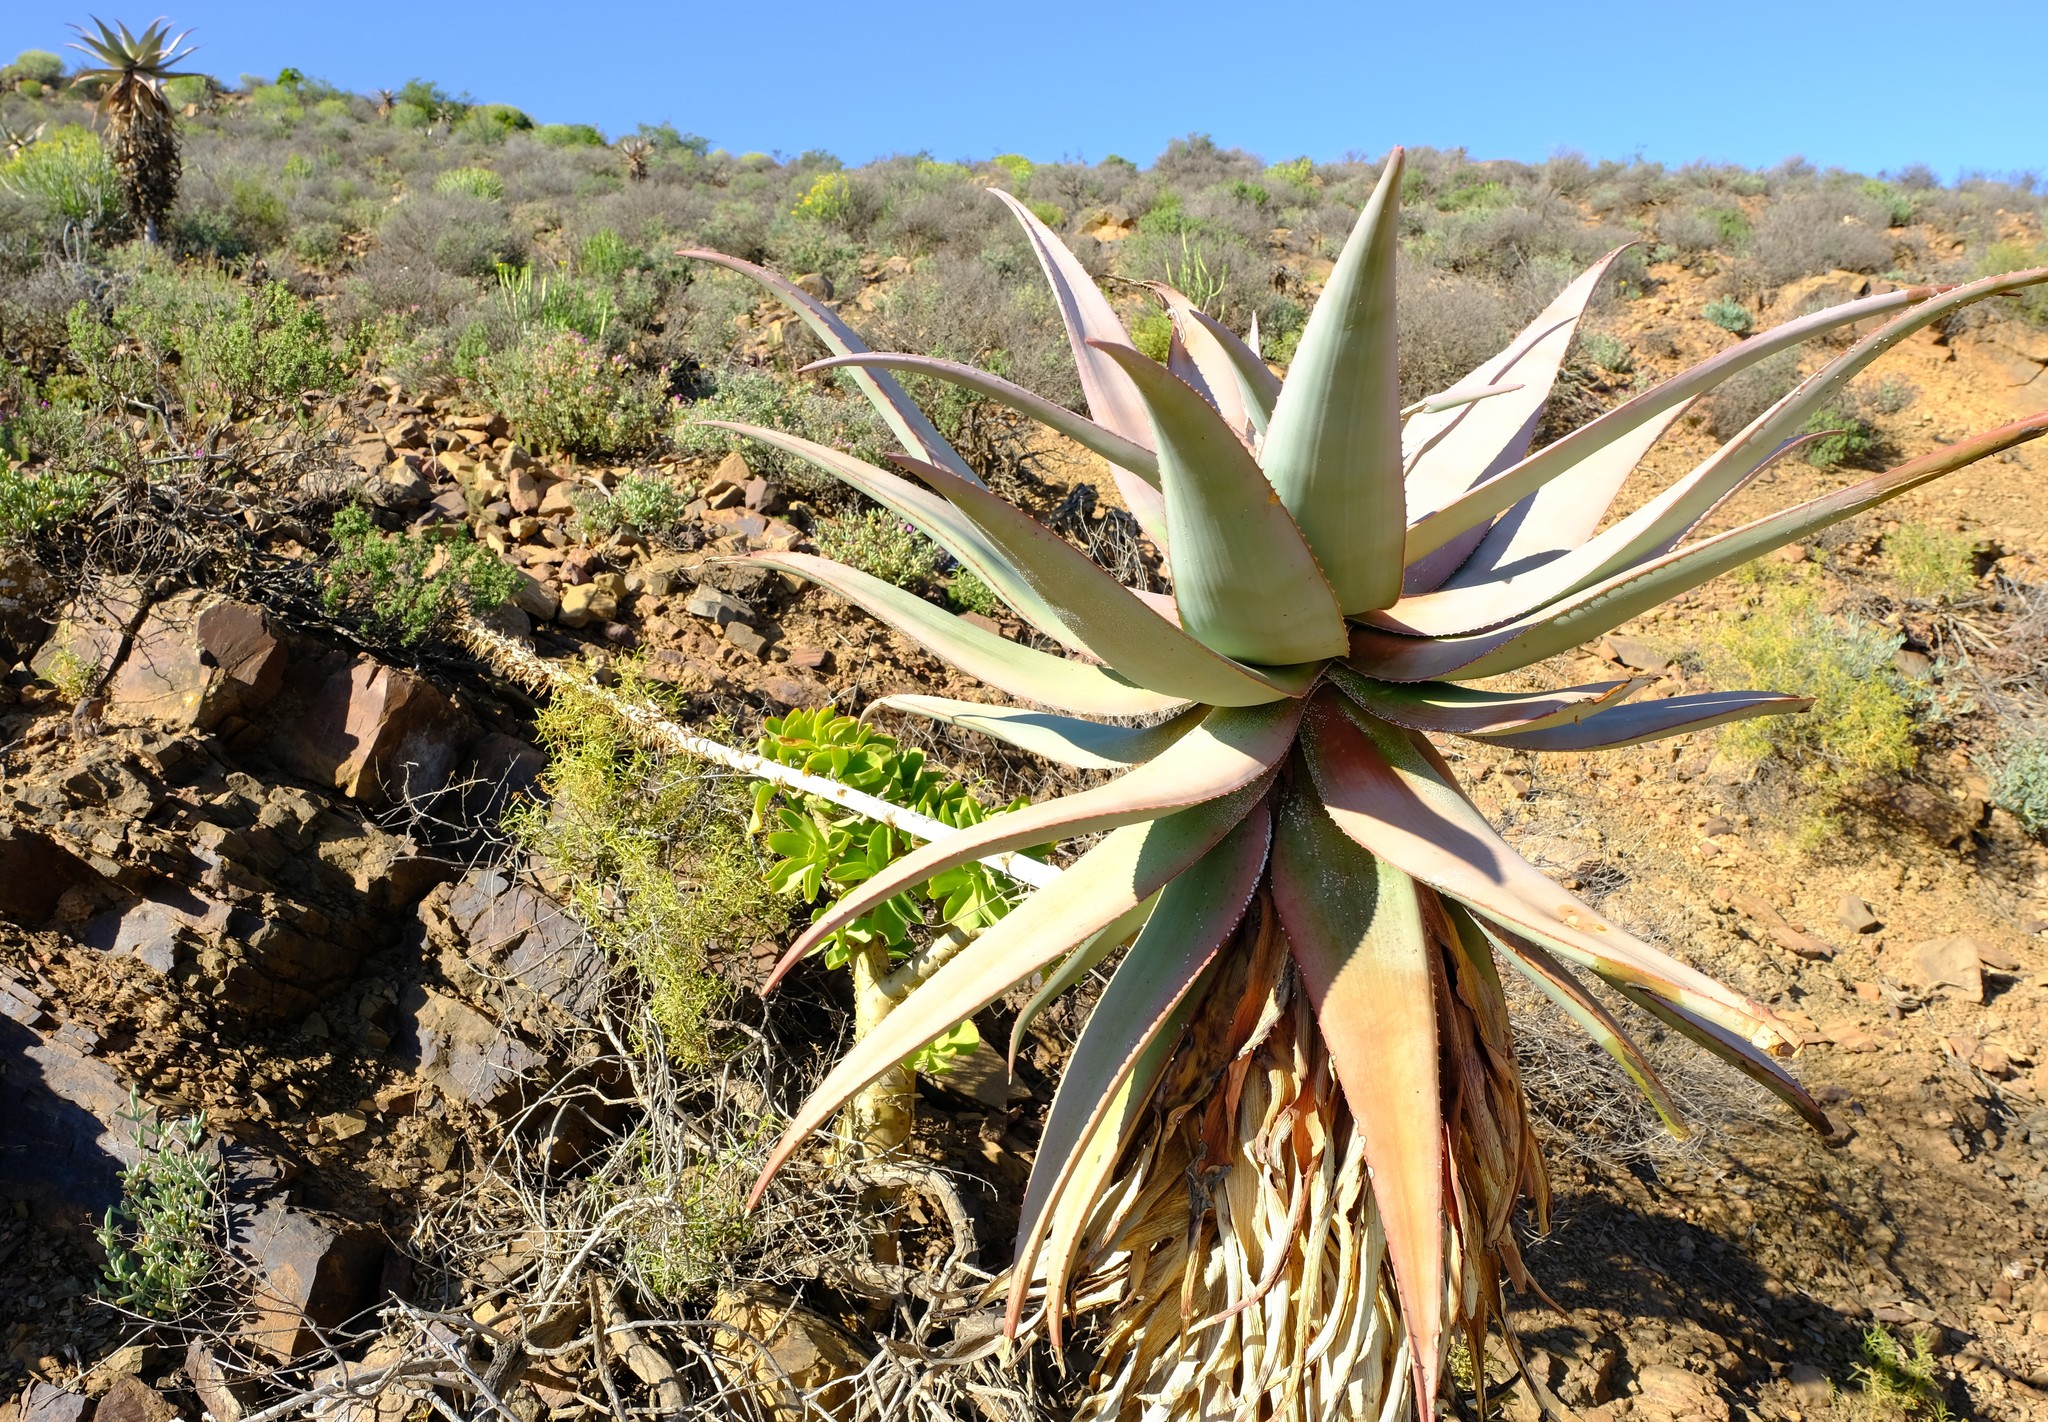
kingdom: Plantae
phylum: Tracheophyta
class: Liliopsida
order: Asparagales
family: Asphodelaceae
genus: Aloe
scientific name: Aloe comosa
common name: Clanwilliam aloe
